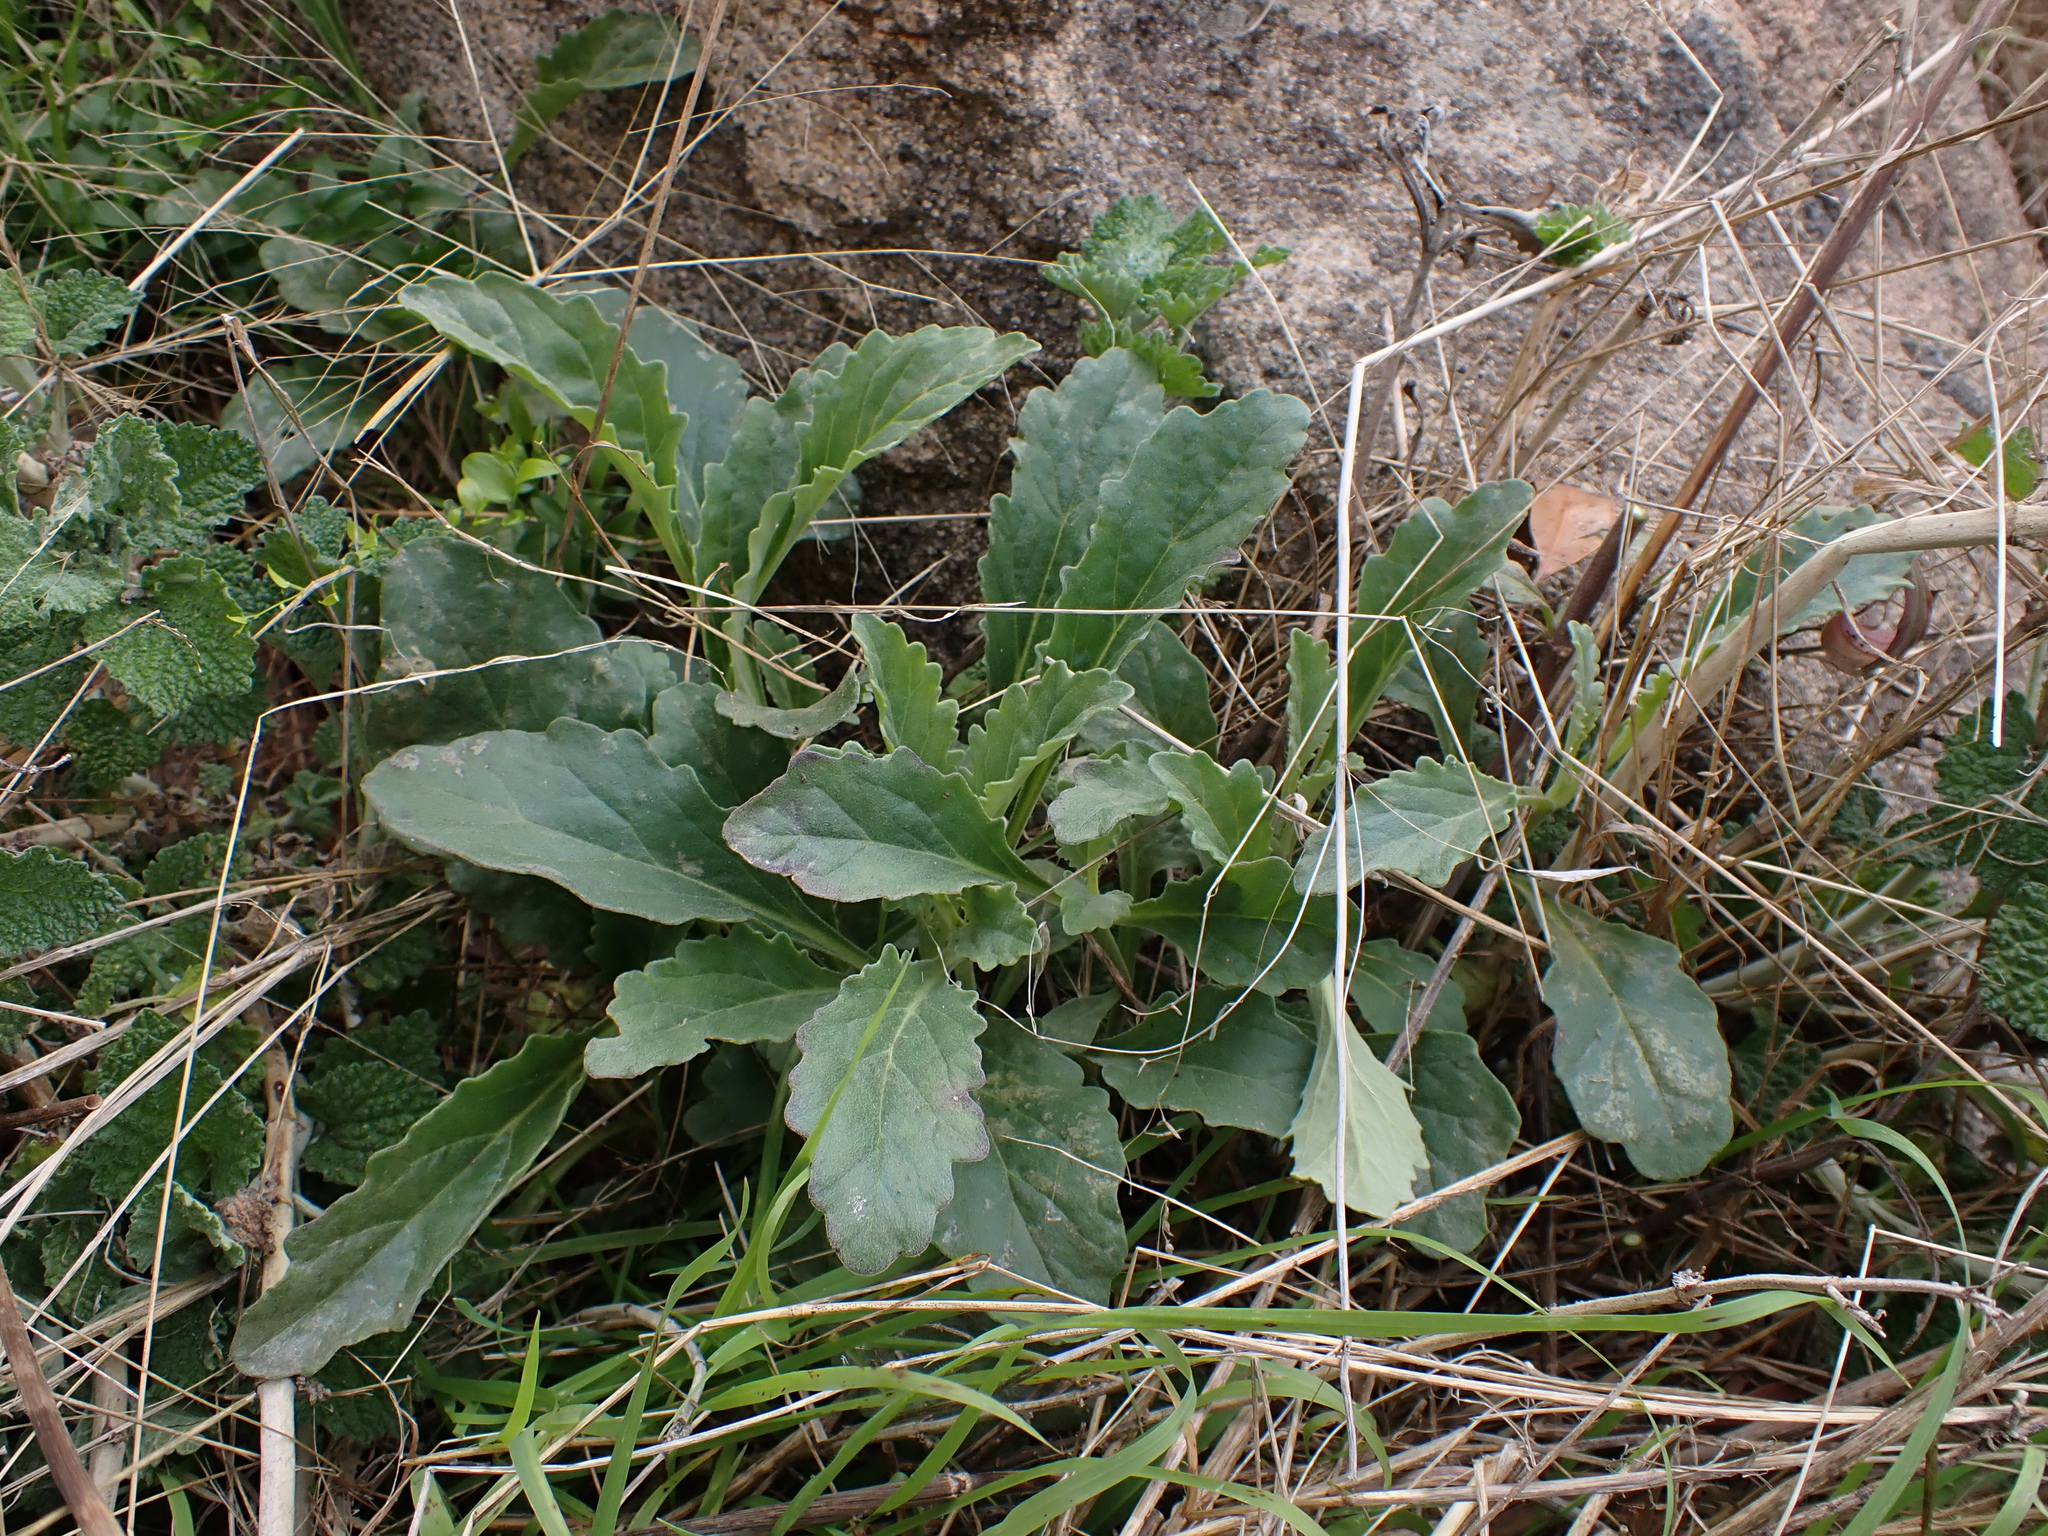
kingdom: Plantae
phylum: Tracheophyta
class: Magnoliopsida
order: Lamiales
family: Lamiaceae
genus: Ajuga
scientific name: Ajuga australis
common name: Australian bugle
